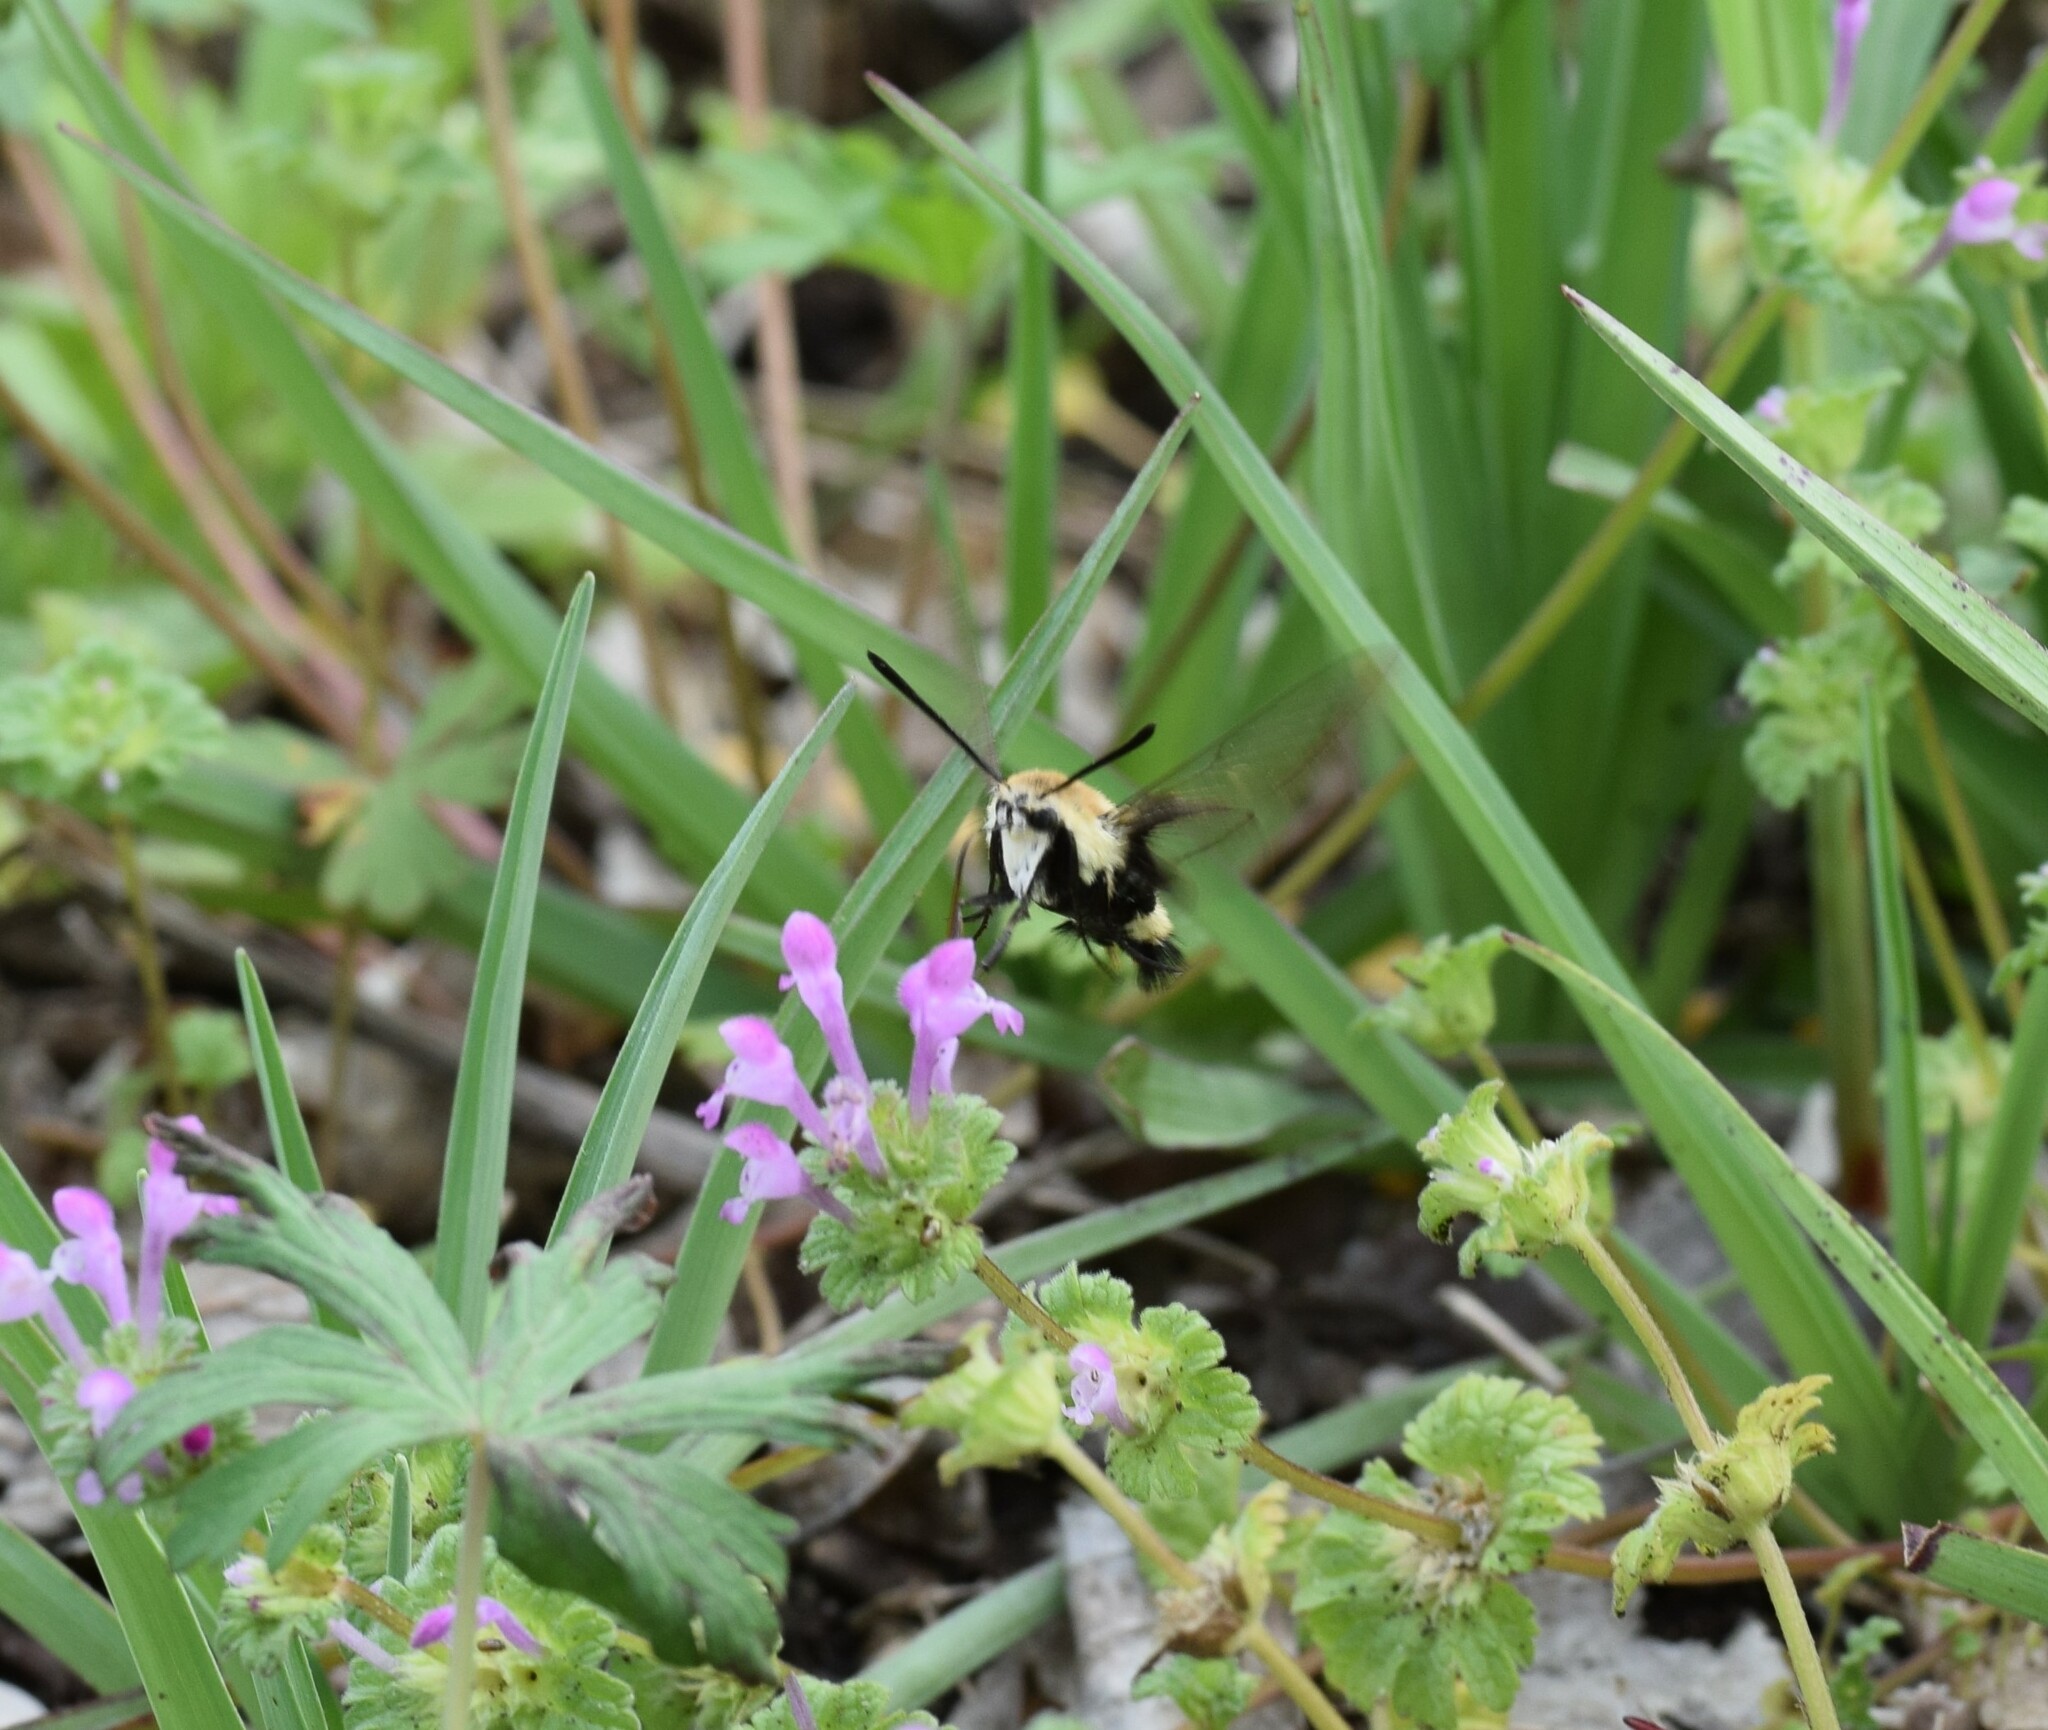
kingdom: Animalia
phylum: Arthropoda
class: Insecta
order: Lepidoptera
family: Sphingidae
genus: Hemaris
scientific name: Hemaris diffinis
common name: Bumblebee moth
